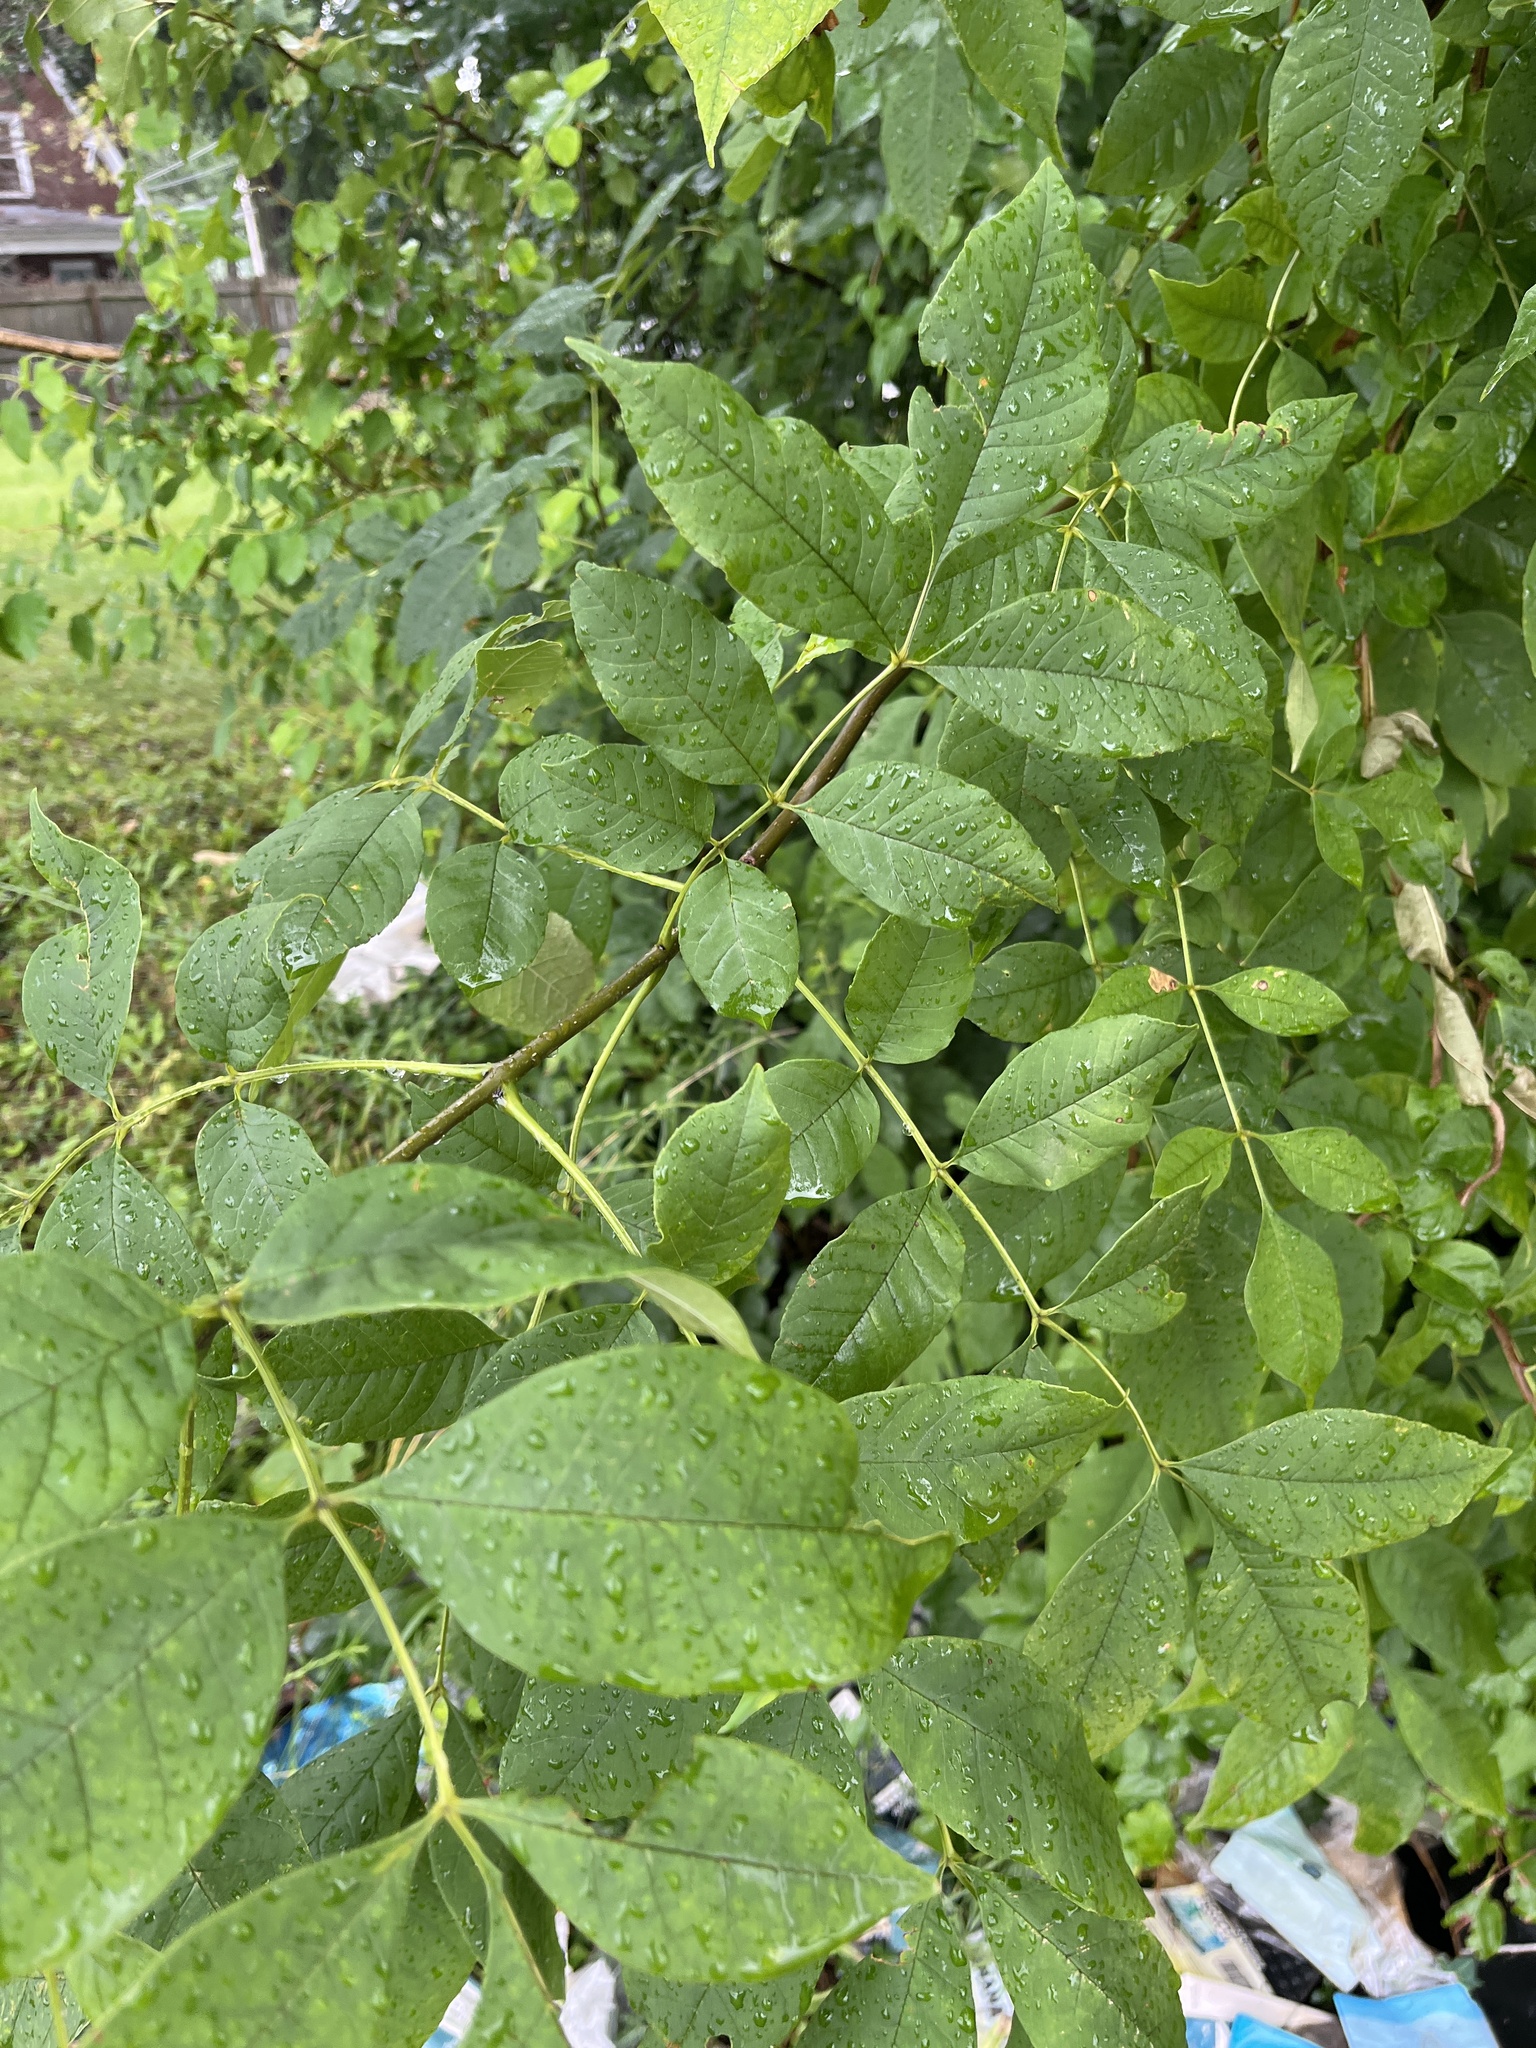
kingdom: Plantae
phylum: Tracheophyta
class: Magnoliopsida
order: Lamiales
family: Oleaceae
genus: Fraxinus
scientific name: Fraxinus pennsylvanica
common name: Green ash
